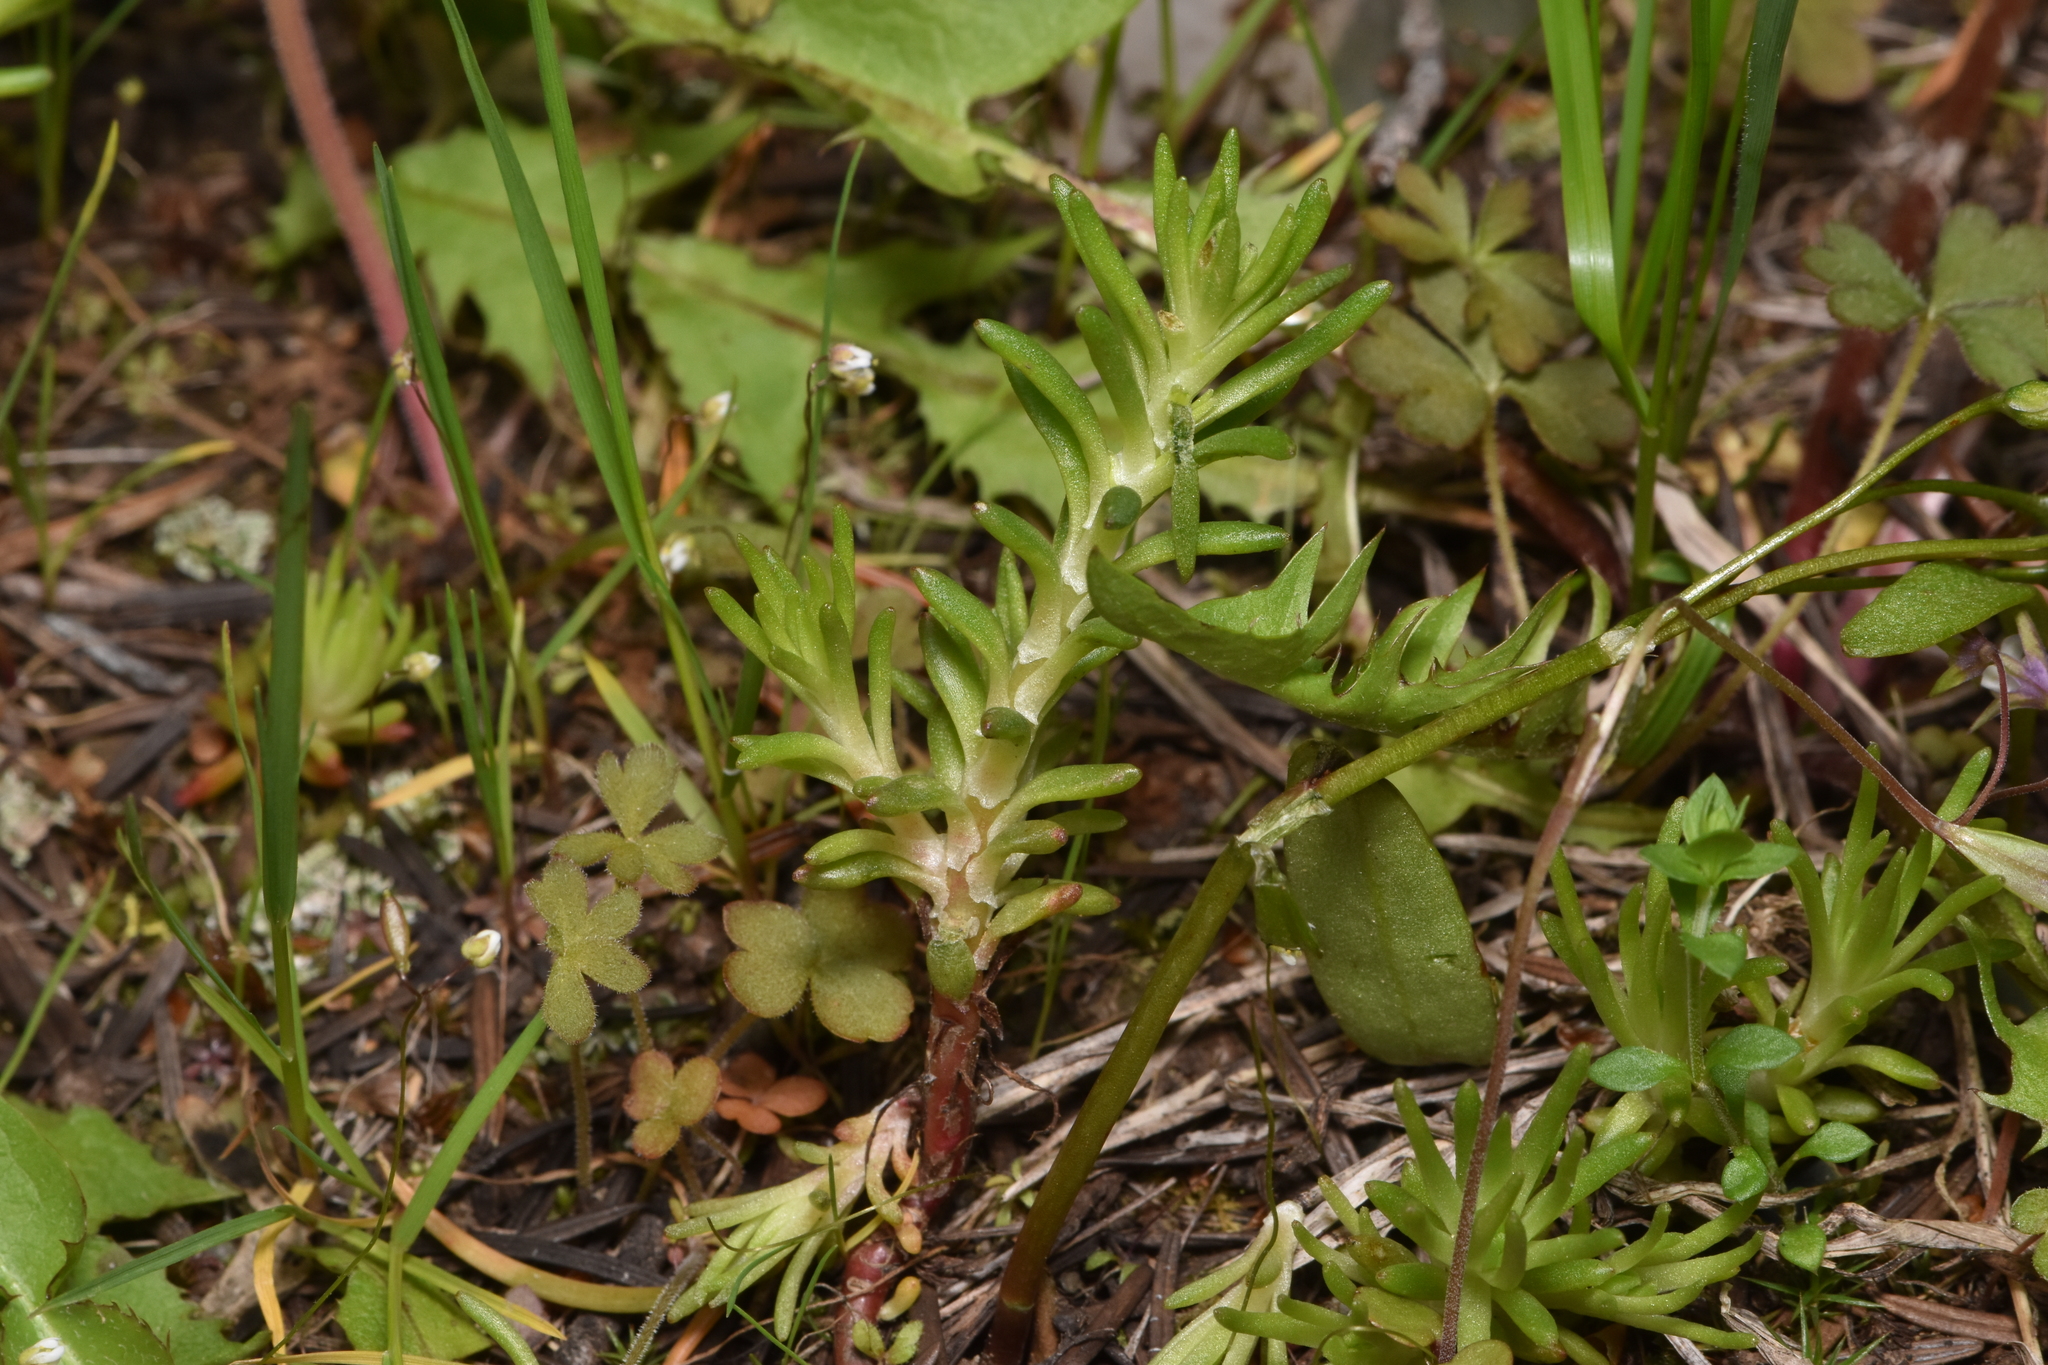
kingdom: Plantae
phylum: Tracheophyta
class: Magnoliopsida
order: Saxifragales
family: Crassulaceae
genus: Sedum
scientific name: Sedum stenopetalum
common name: Narrow-petaled stonecrop
